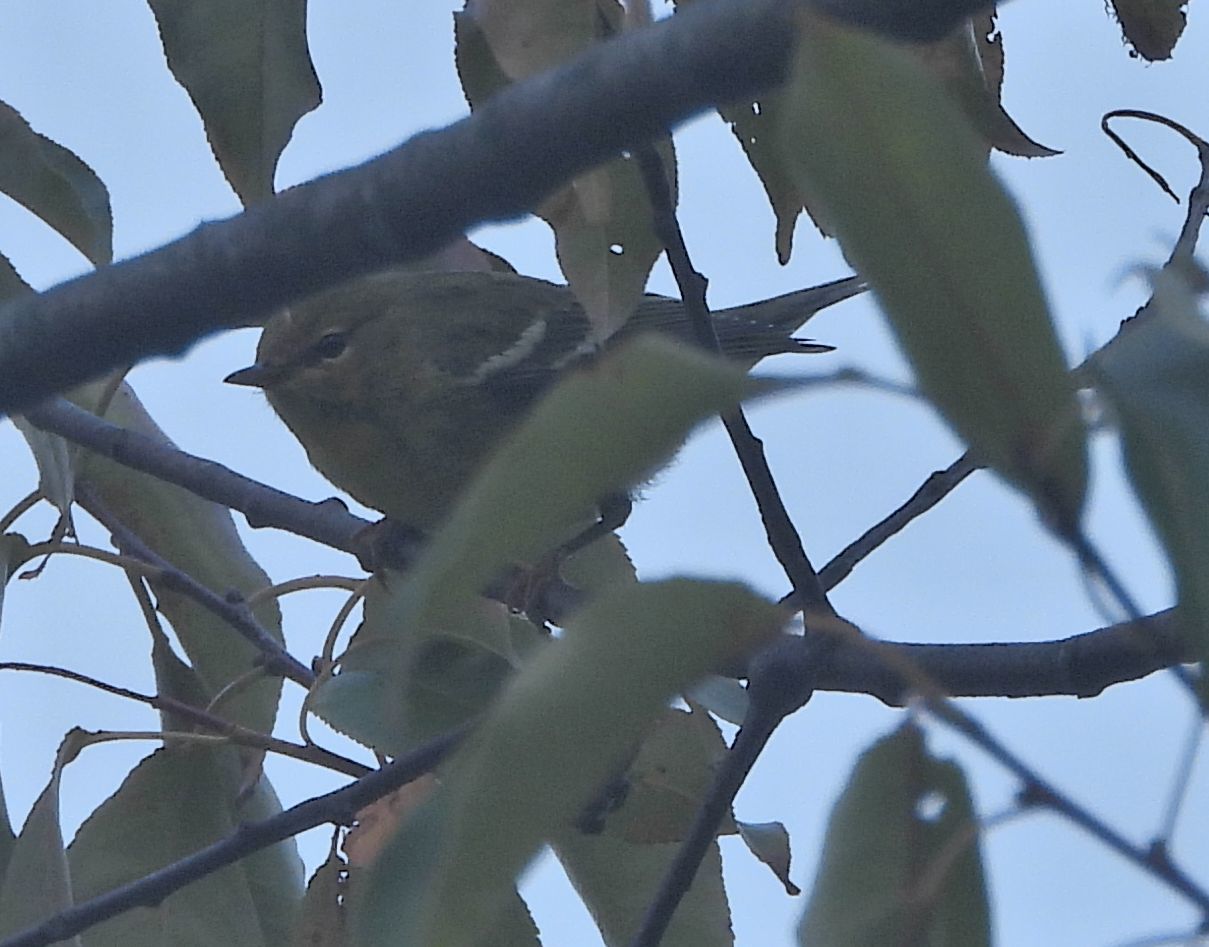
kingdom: Animalia
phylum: Chordata
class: Aves
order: Passeriformes
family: Parulidae
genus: Setophaga
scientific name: Setophaga striata
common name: Blackpoll warbler
